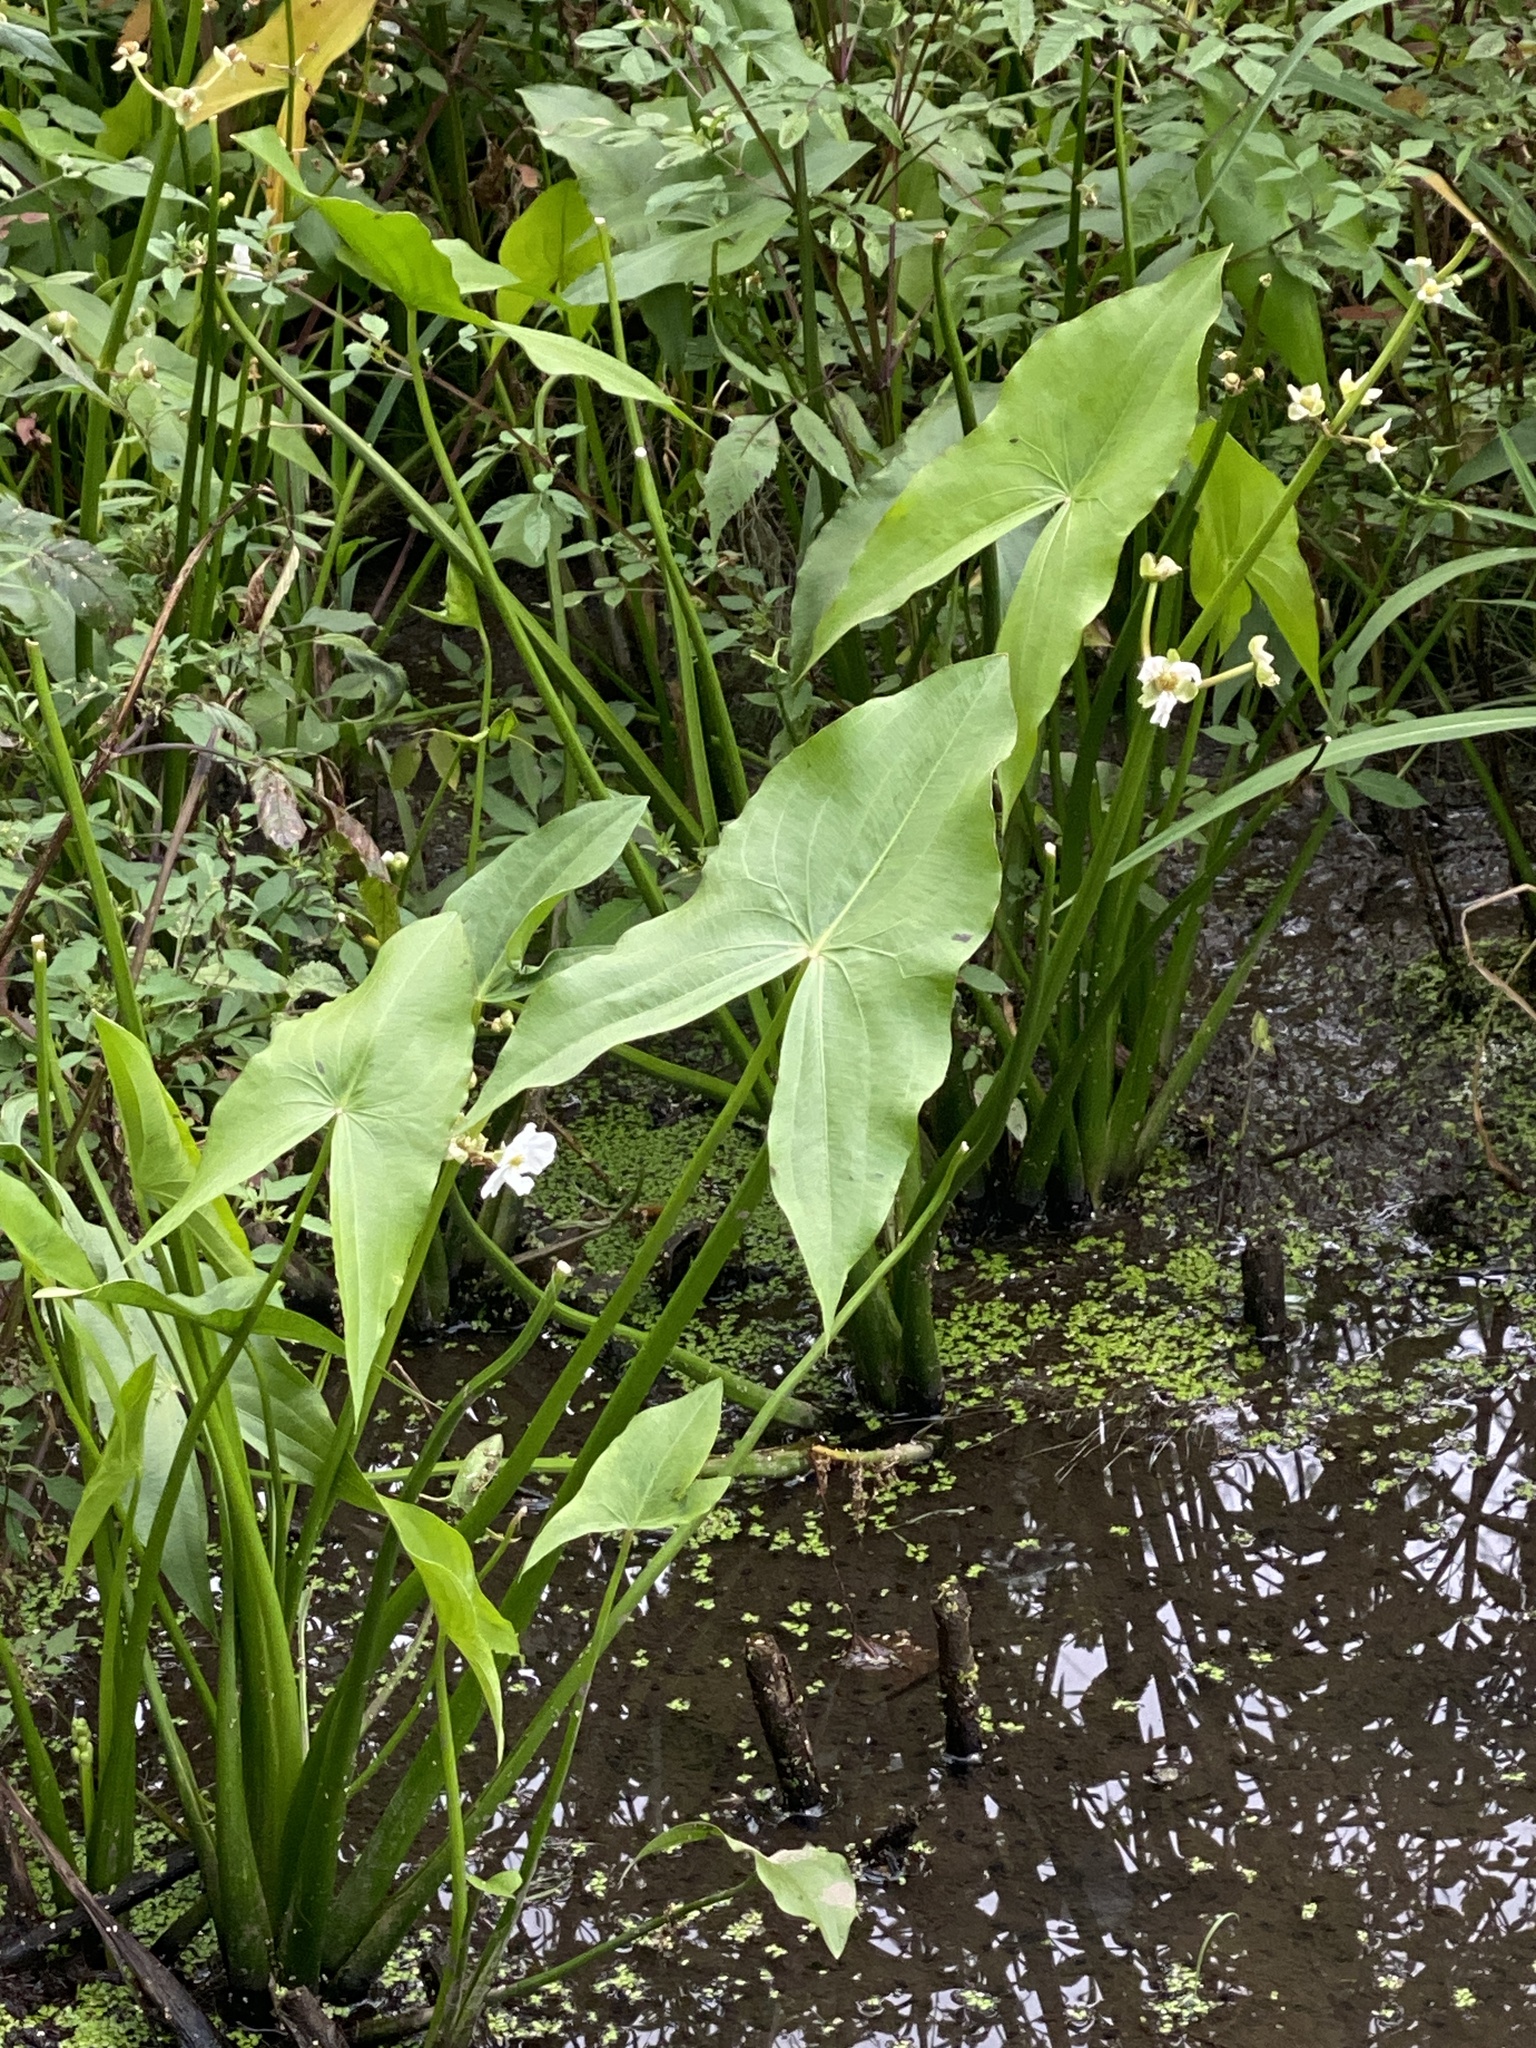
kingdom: Plantae
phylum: Tracheophyta
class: Liliopsida
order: Alismatales
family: Alismataceae
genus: Sagittaria
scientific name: Sagittaria latifolia
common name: Duck-potato
